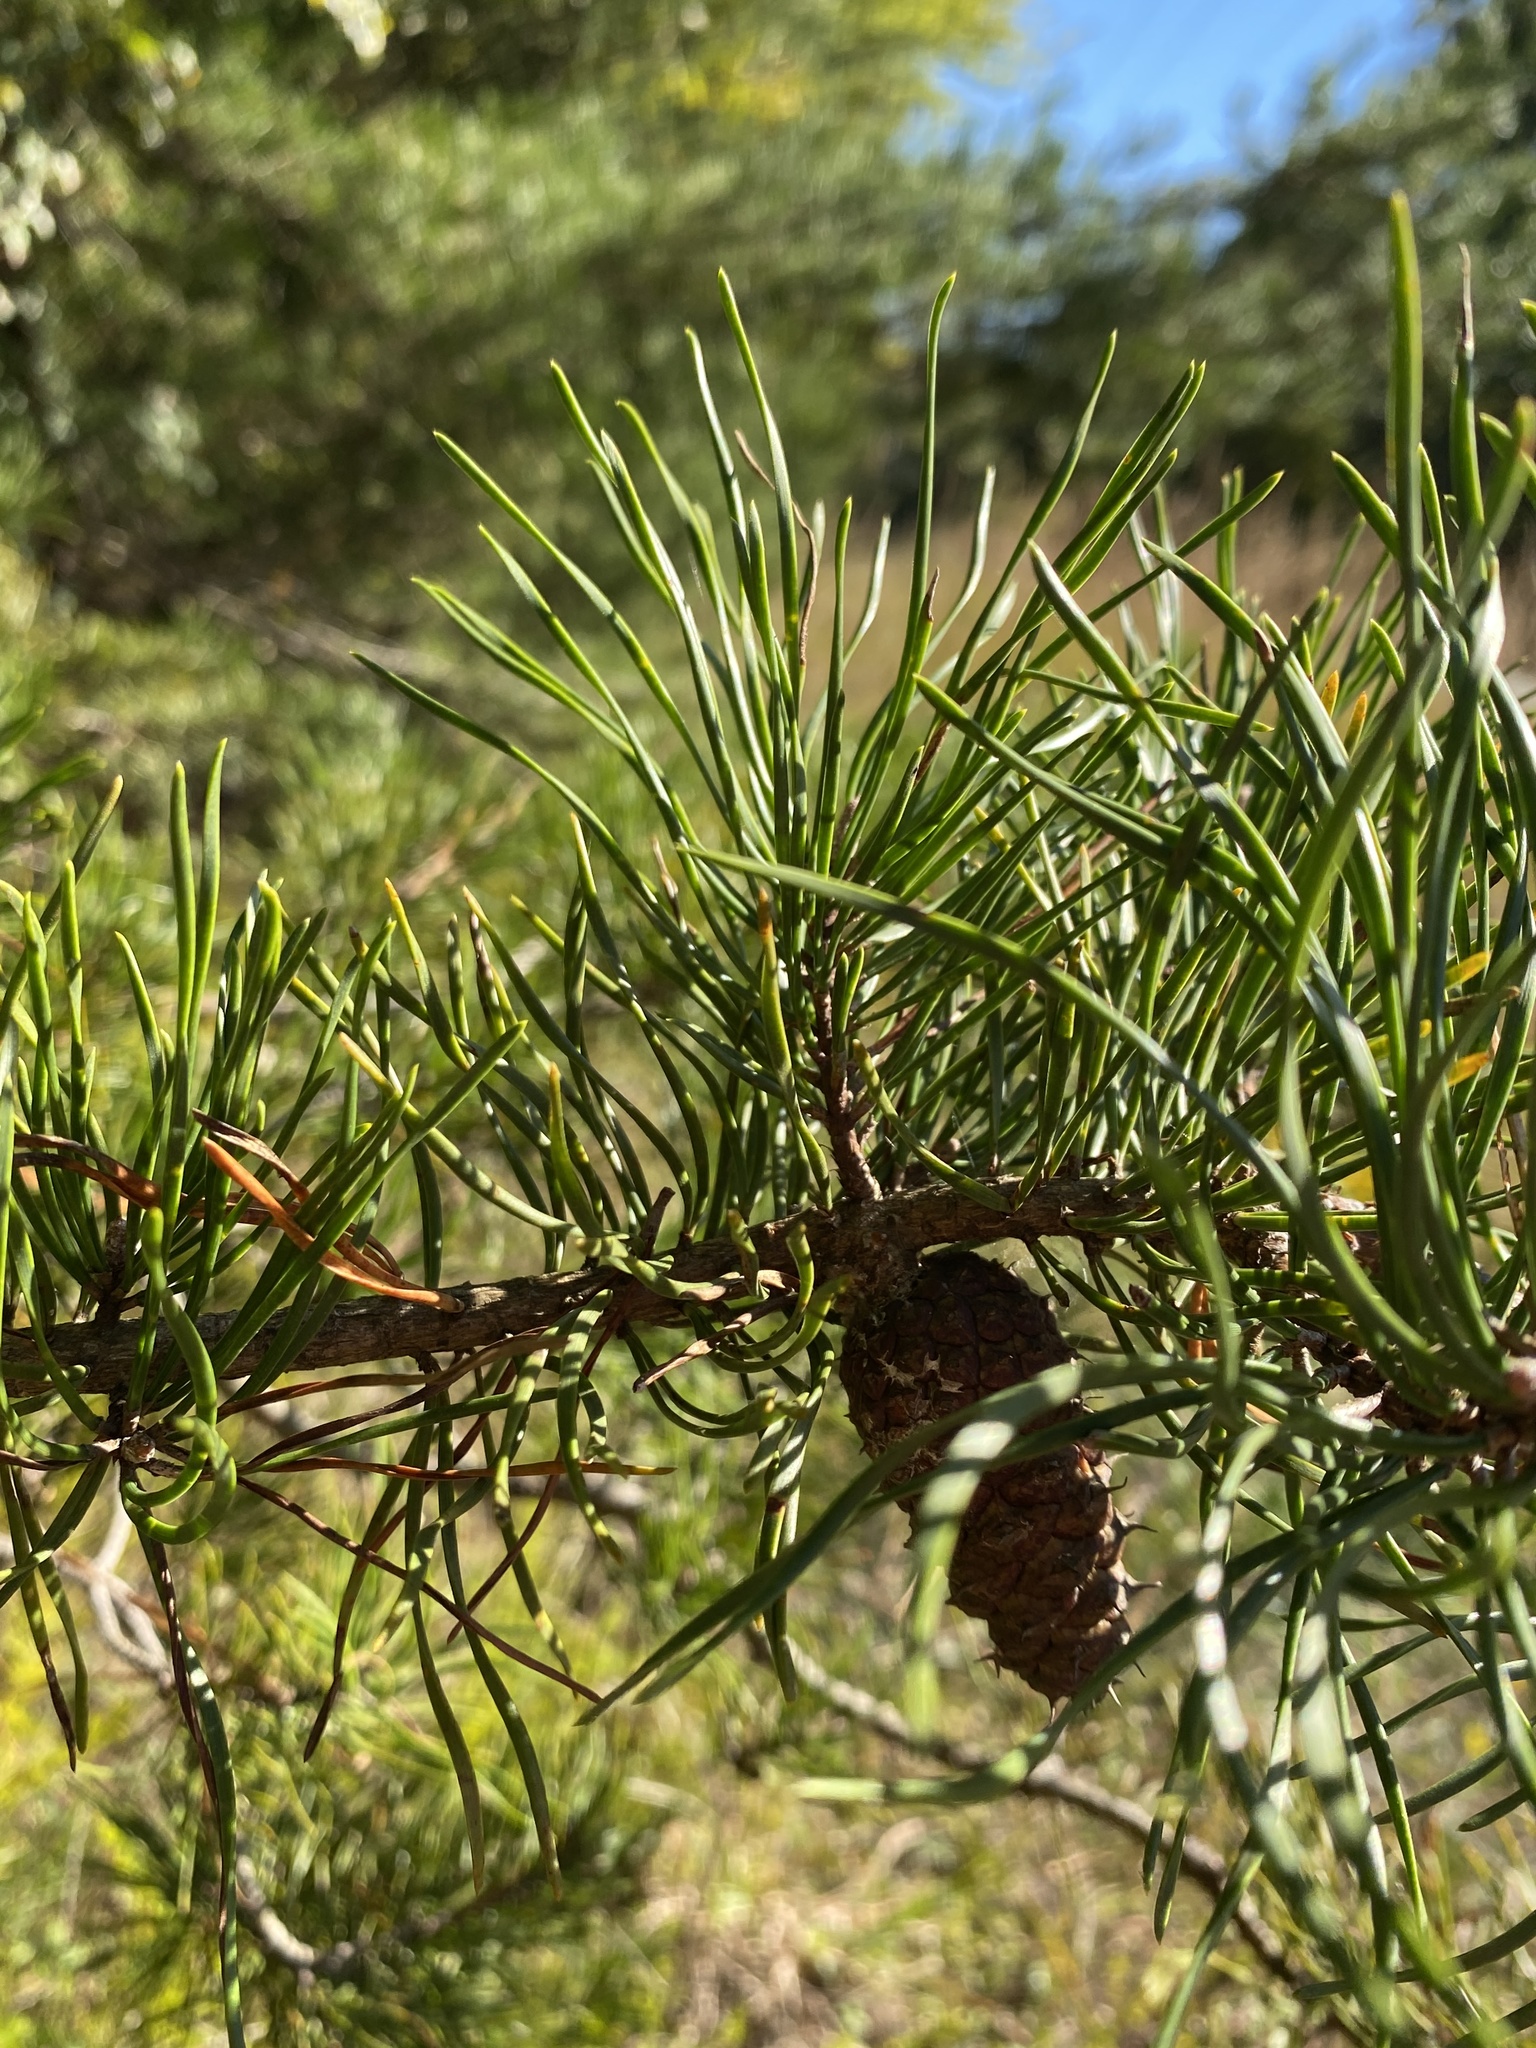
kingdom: Plantae
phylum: Tracheophyta
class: Pinopsida
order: Pinales
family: Pinaceae
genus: Pinus
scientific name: Pinus virginiana
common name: Scrub pine
